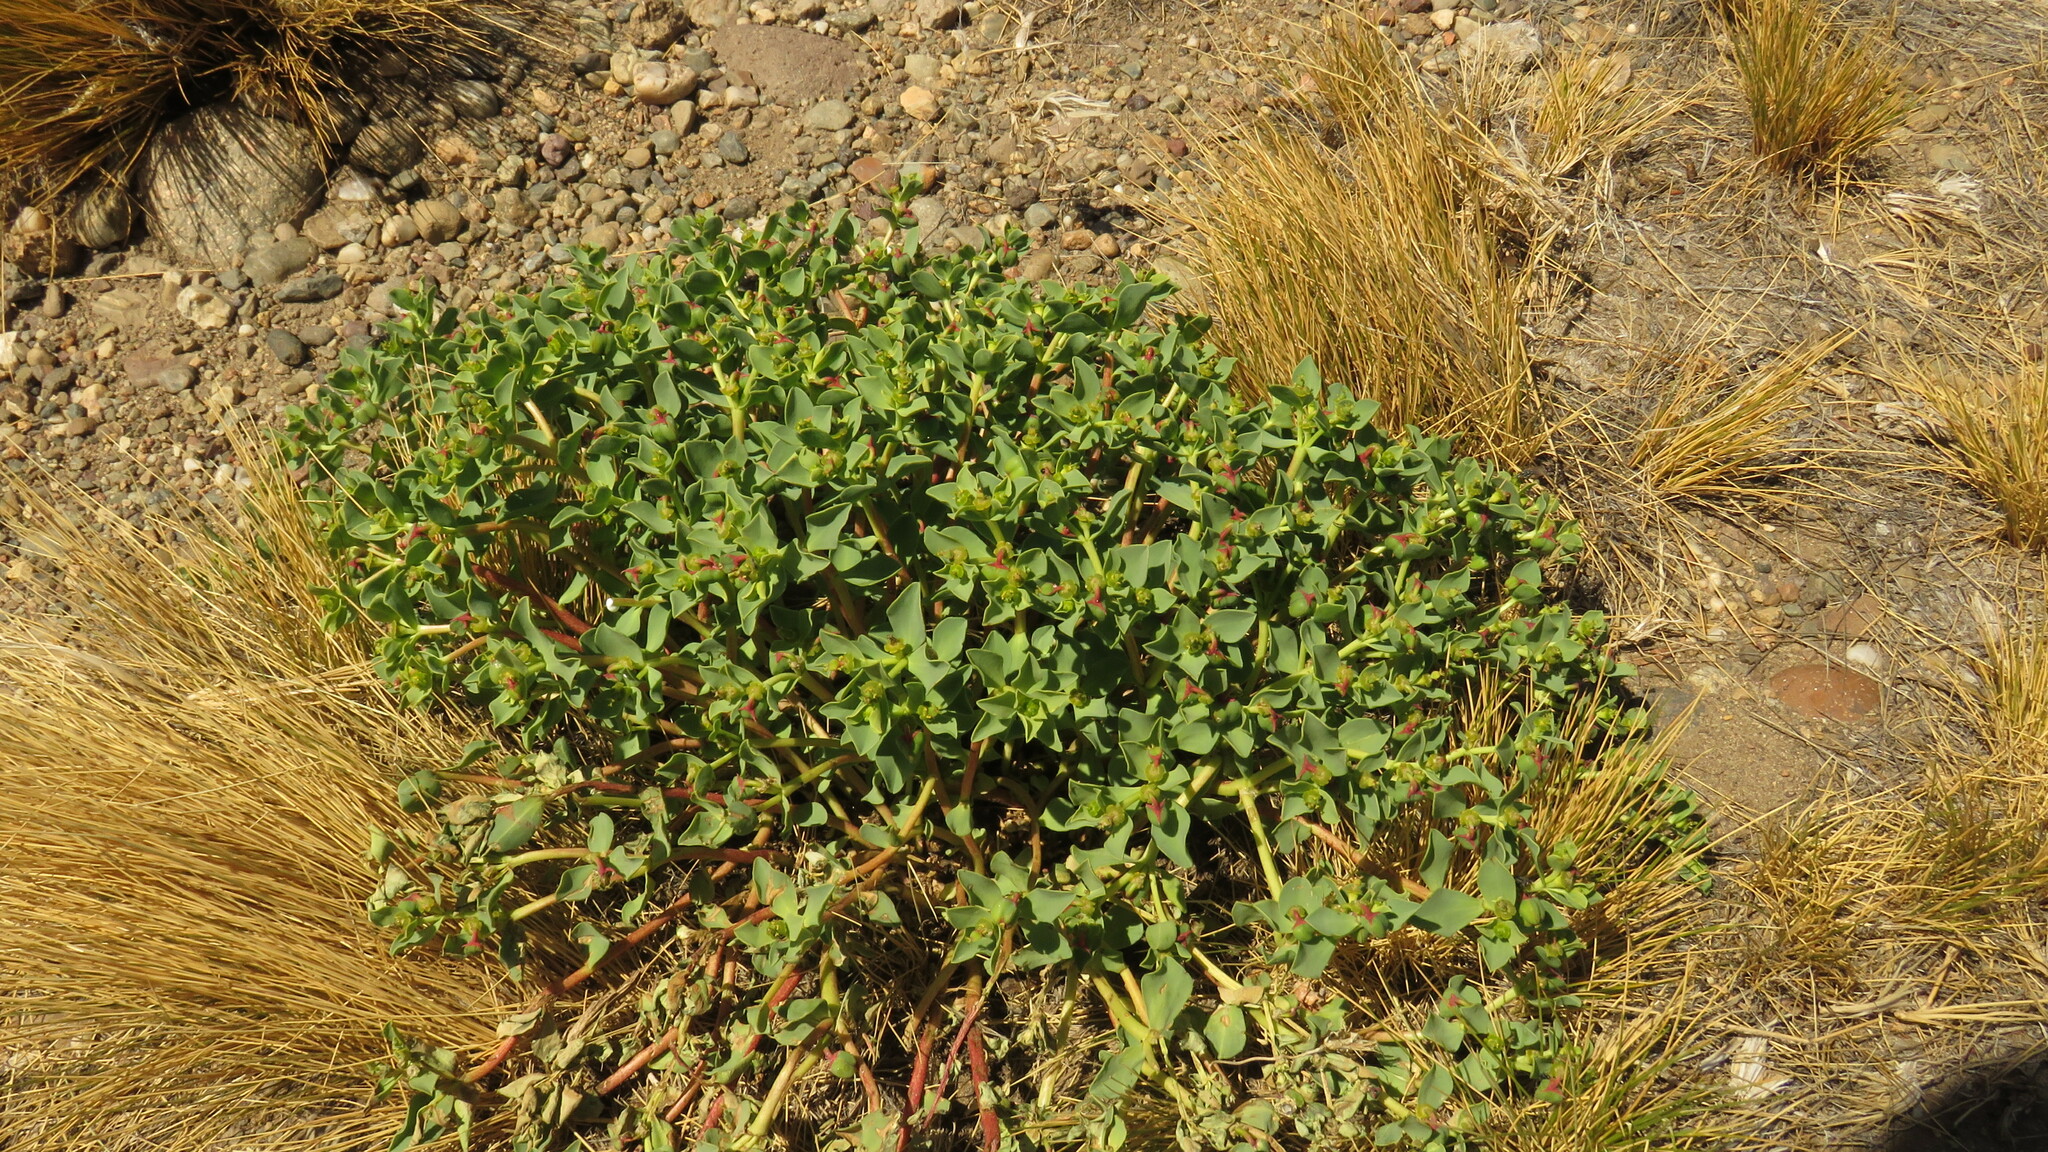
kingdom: Plantae
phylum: Tracheophyta
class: Magnoliopsida
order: Malpighiales
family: Euphorbiaceae
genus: Euphorbia
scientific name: Euphorbia collina
